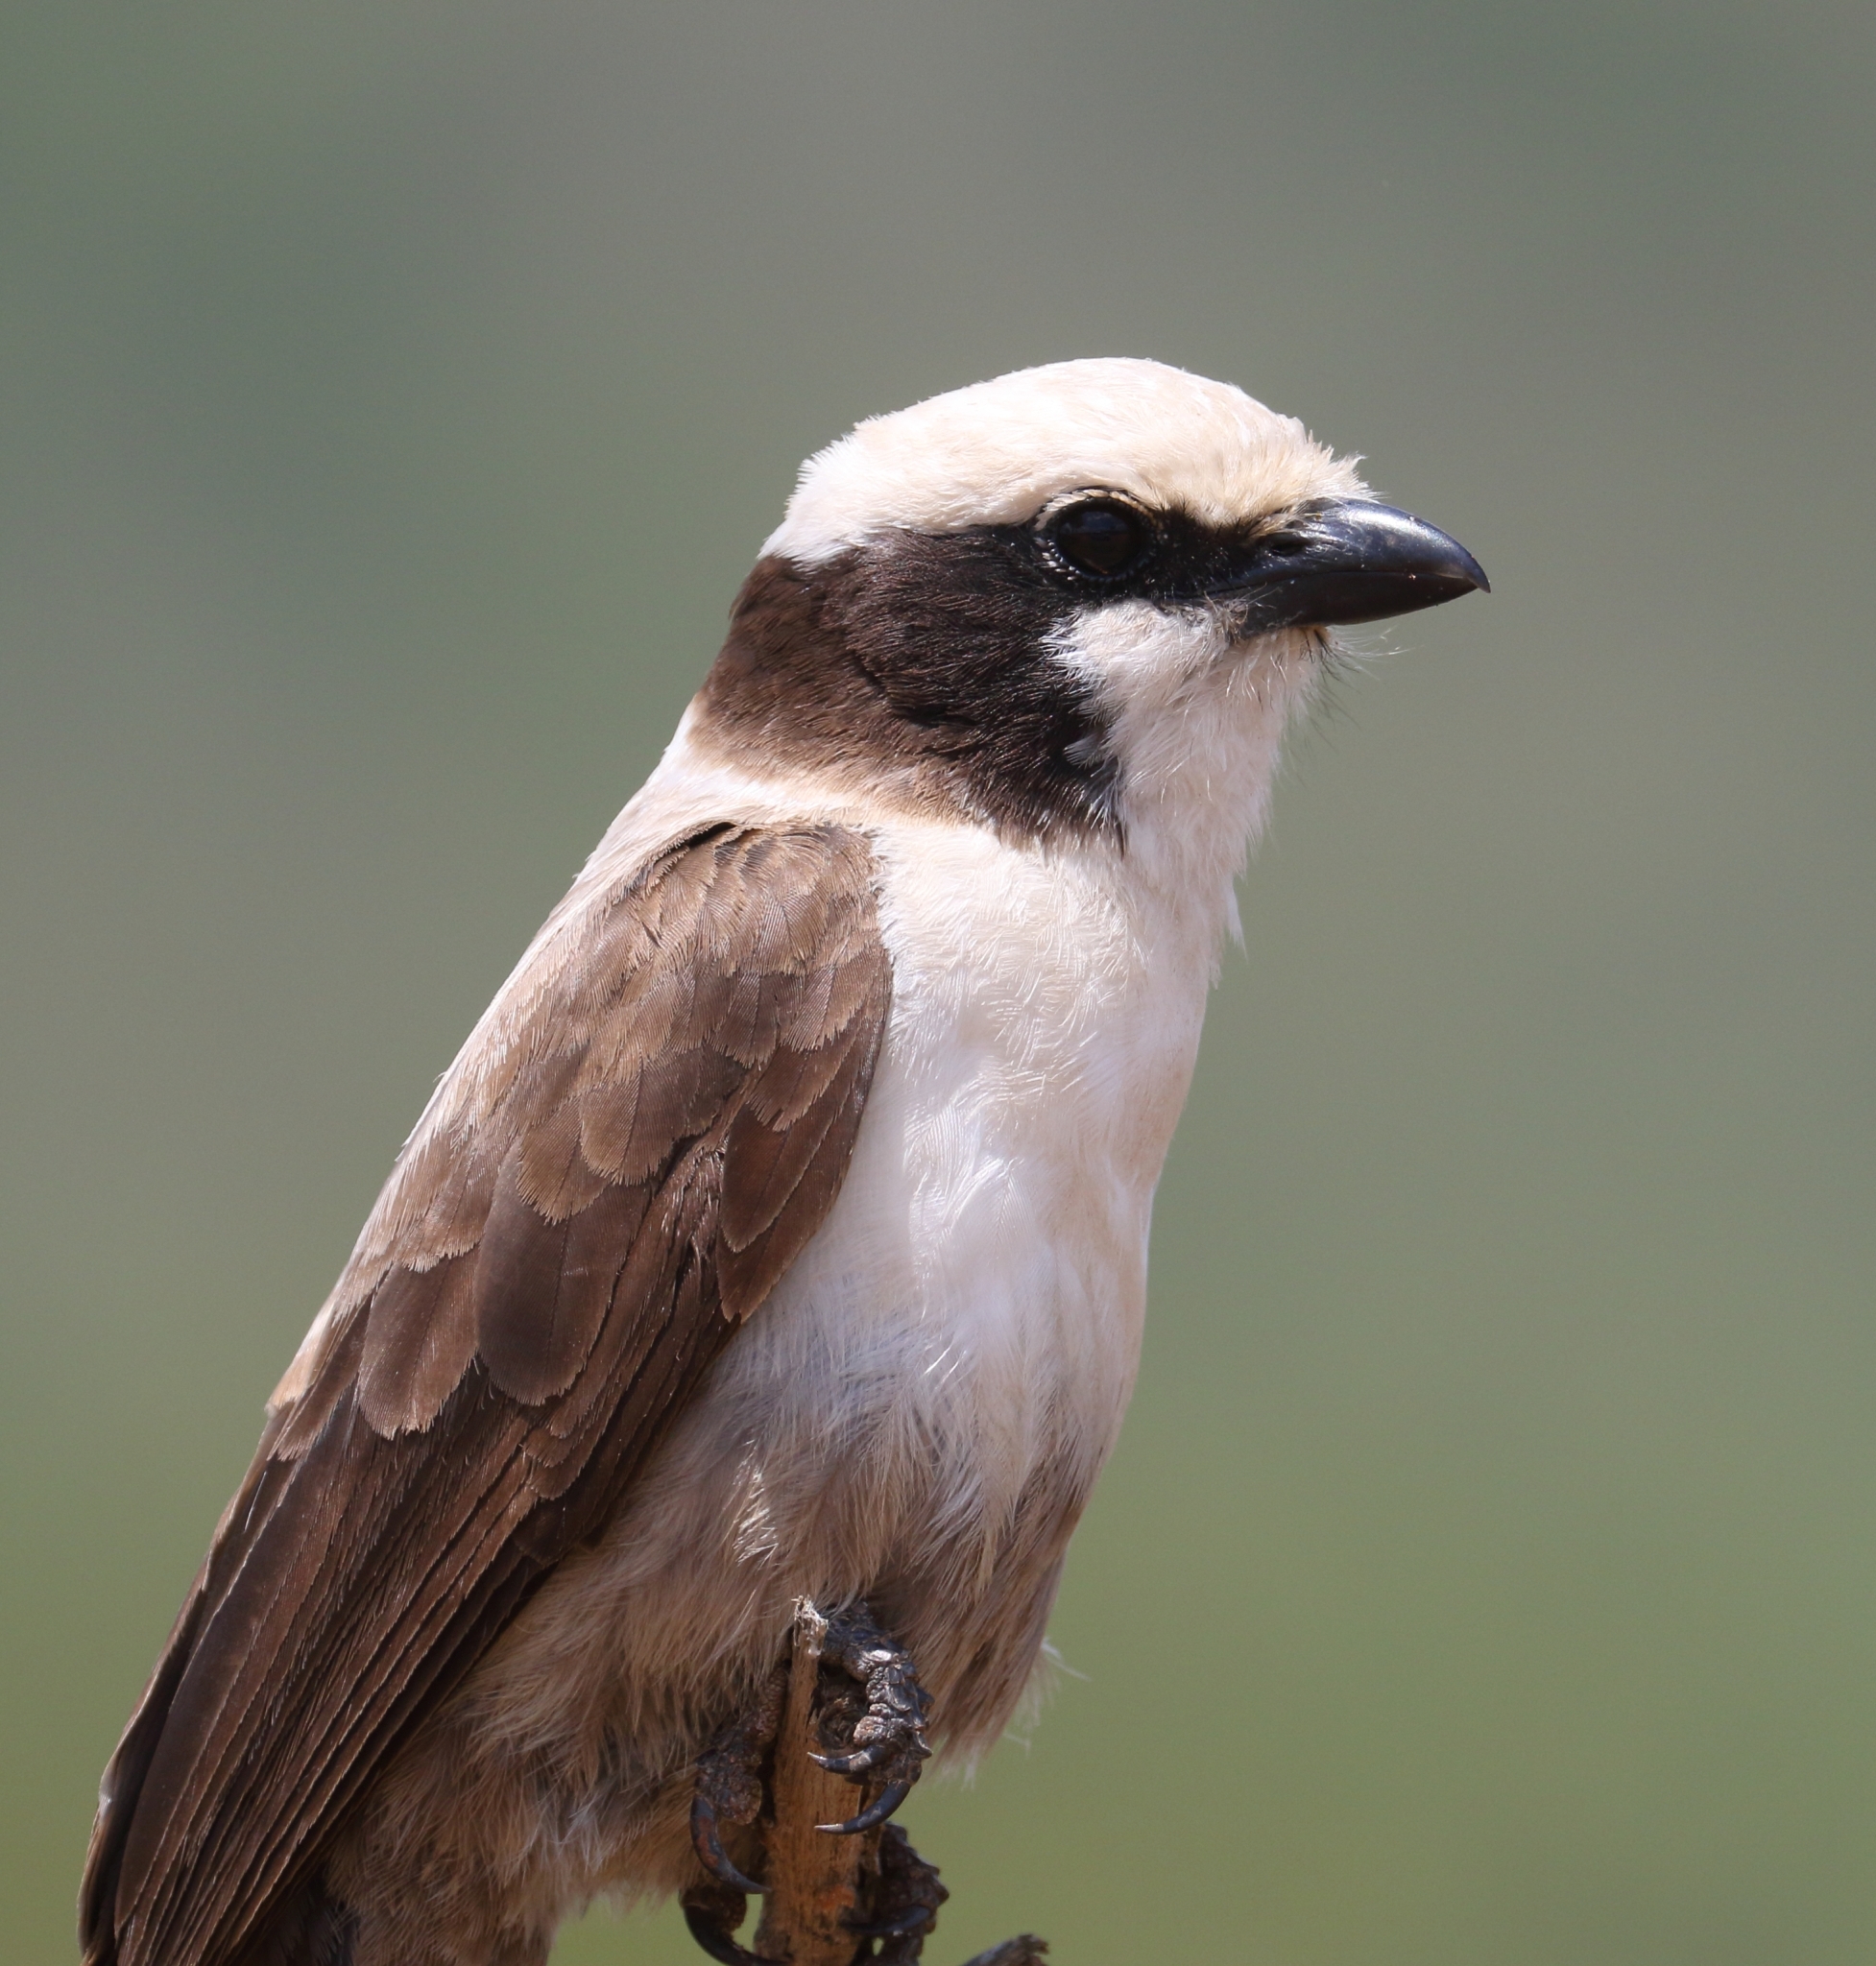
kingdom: Animalia
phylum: Chordata
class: Aves
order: Passeriformes
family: Laniidae
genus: Eurocephalus
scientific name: Eurocephalus anguitimens
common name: Southern white-crowned shrike
